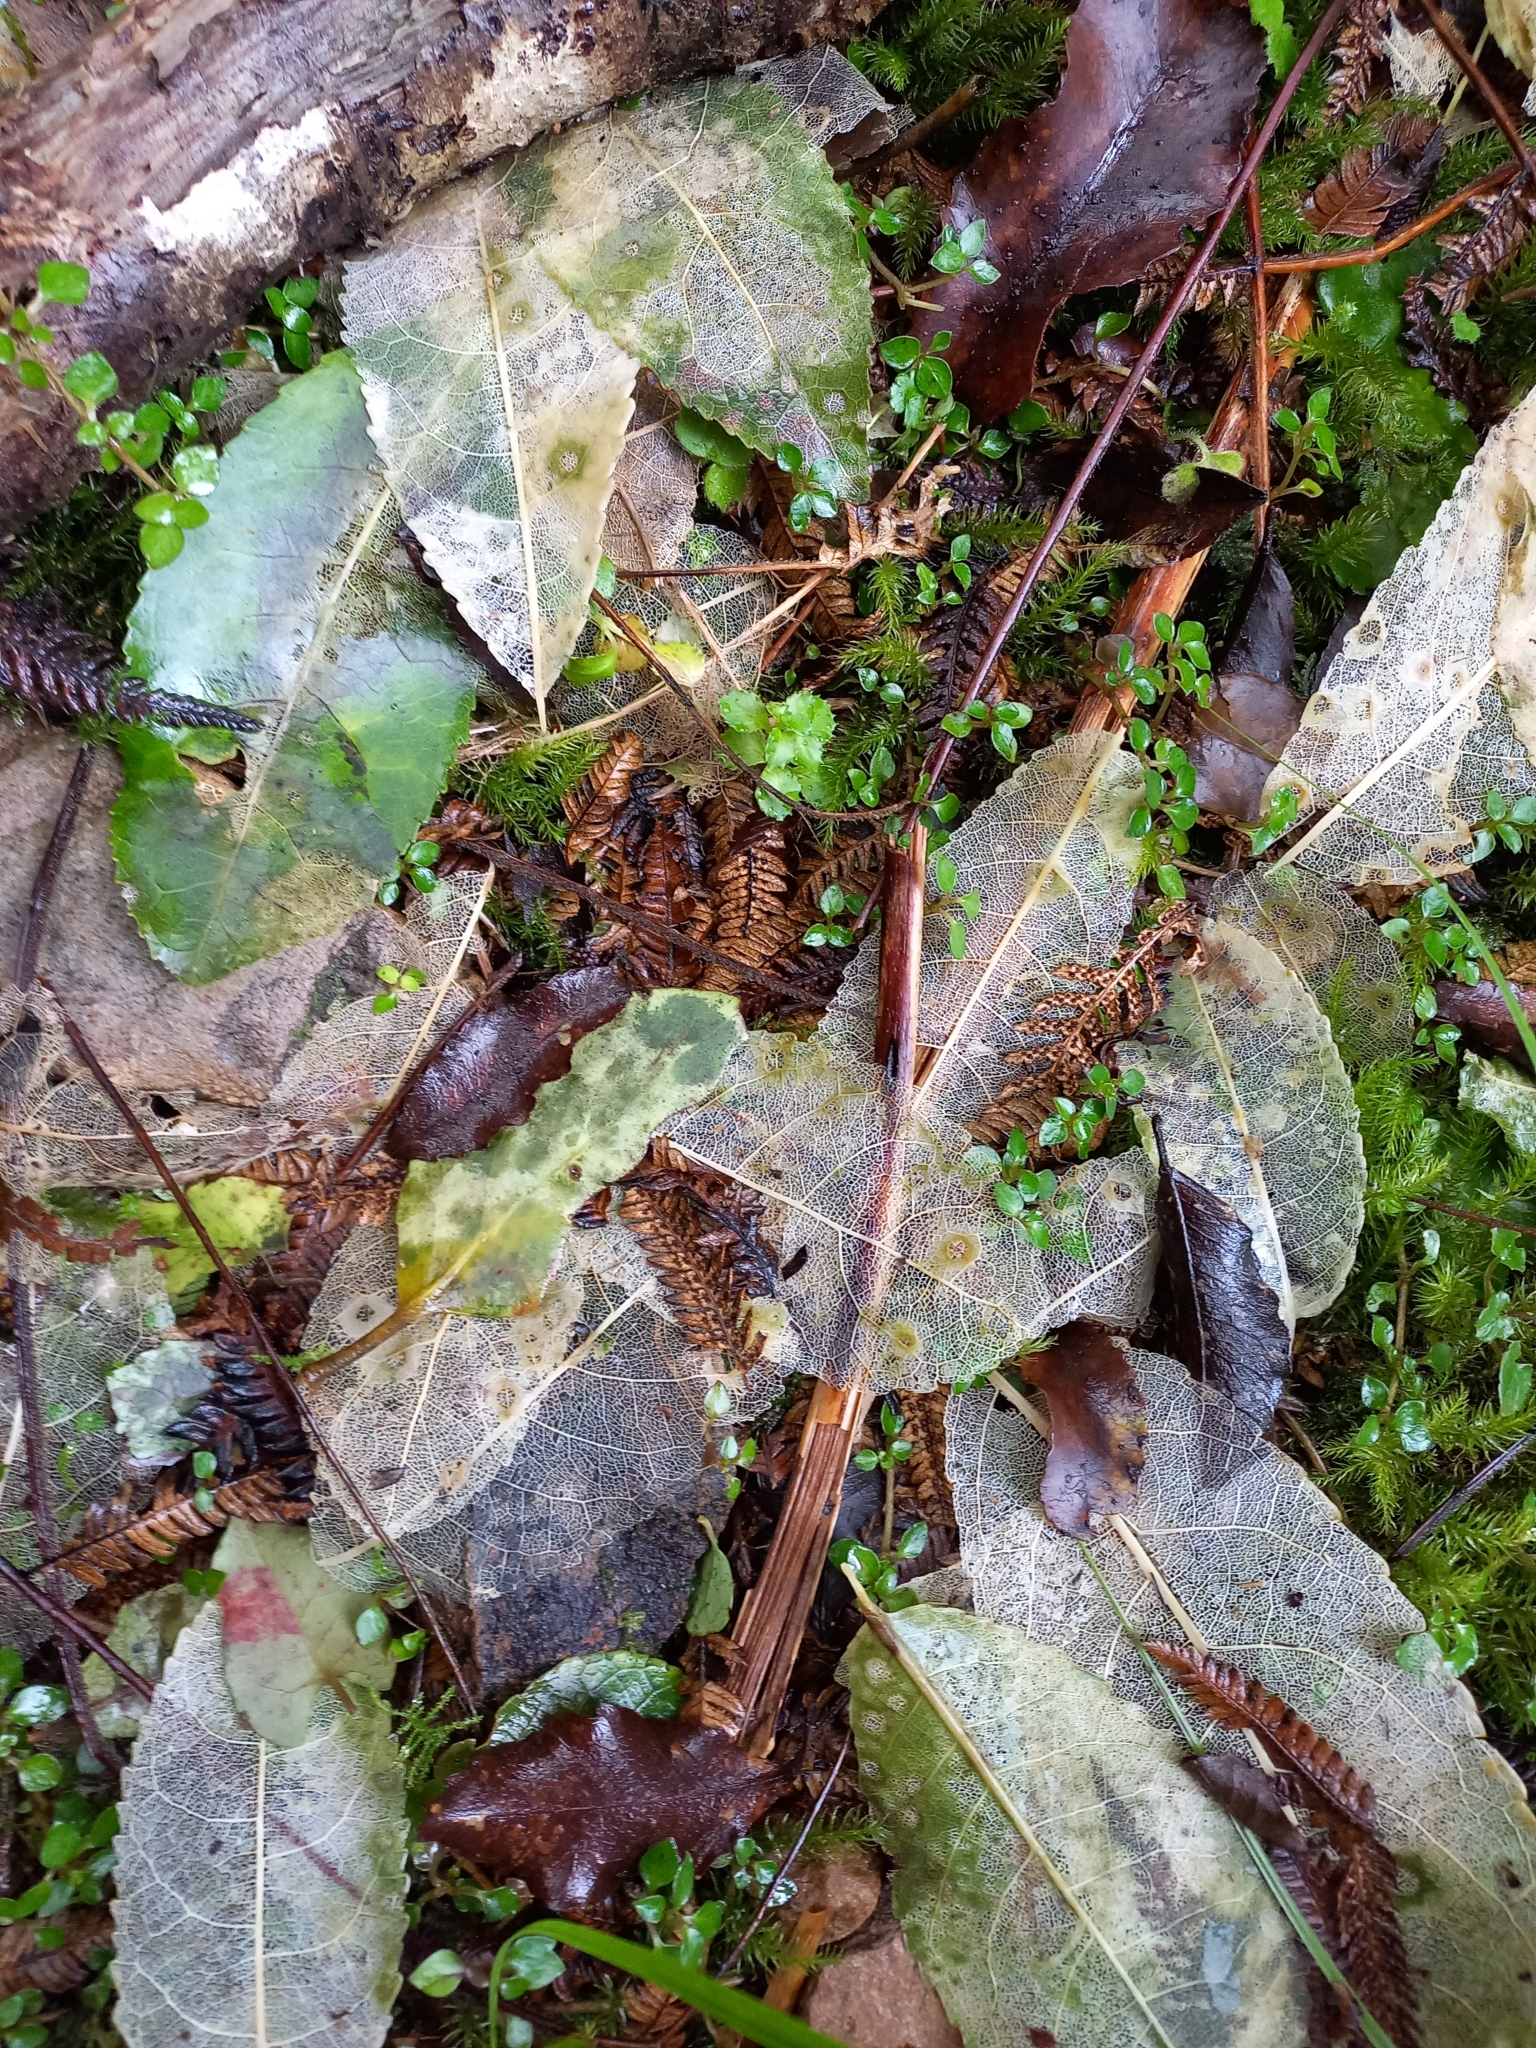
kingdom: Plantae
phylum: Tracheophyta
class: Magnoliopsida
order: Malpighiales
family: Violaceae
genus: Melicytus
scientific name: Melicytus ramiflorus
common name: Mahoe
